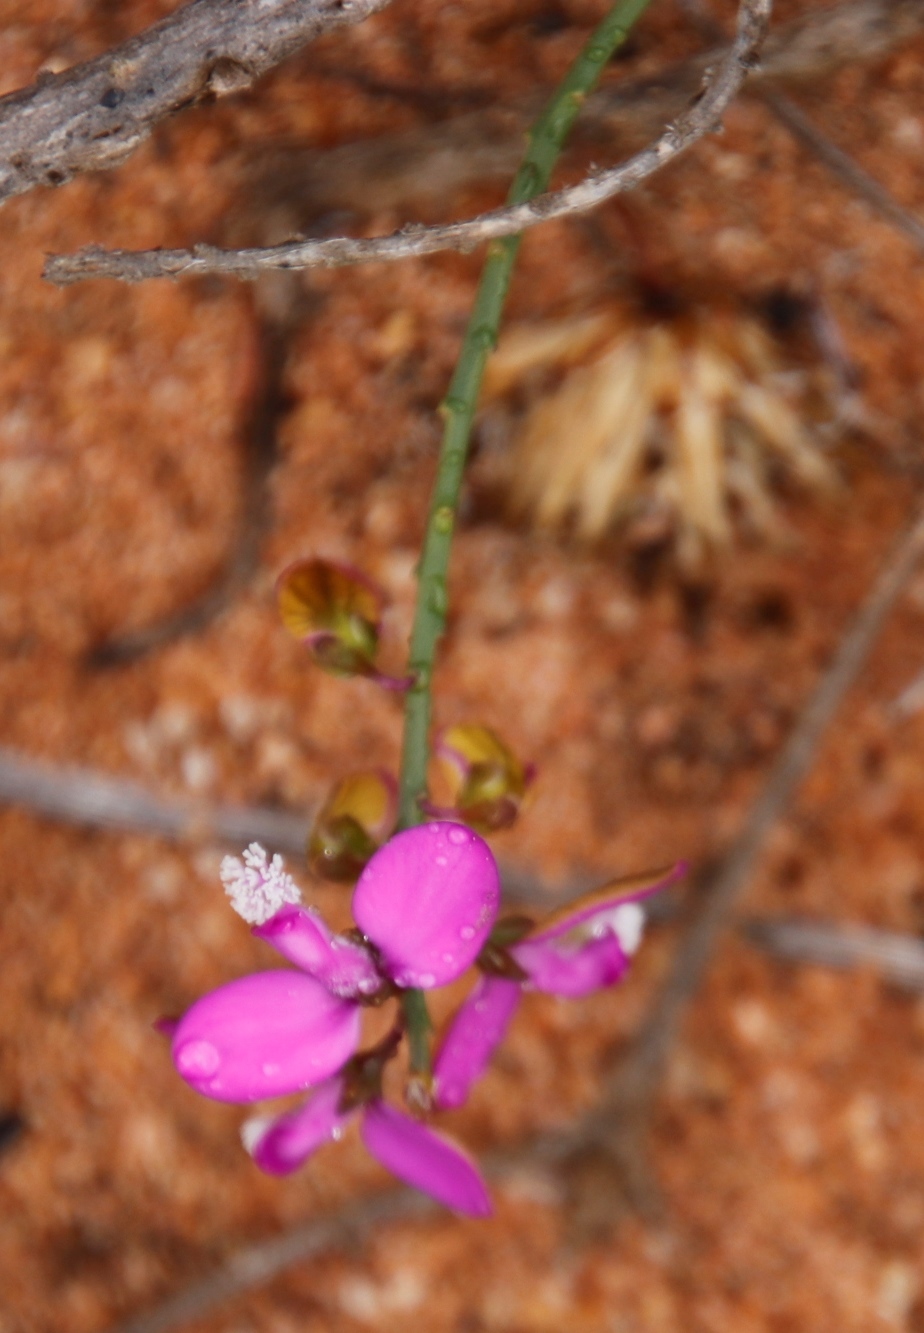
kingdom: Plantae
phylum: Tracheophyta
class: Magnoliopsida
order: Fabales
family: Polygalaceae
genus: Polygala
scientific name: Polygala garcini
